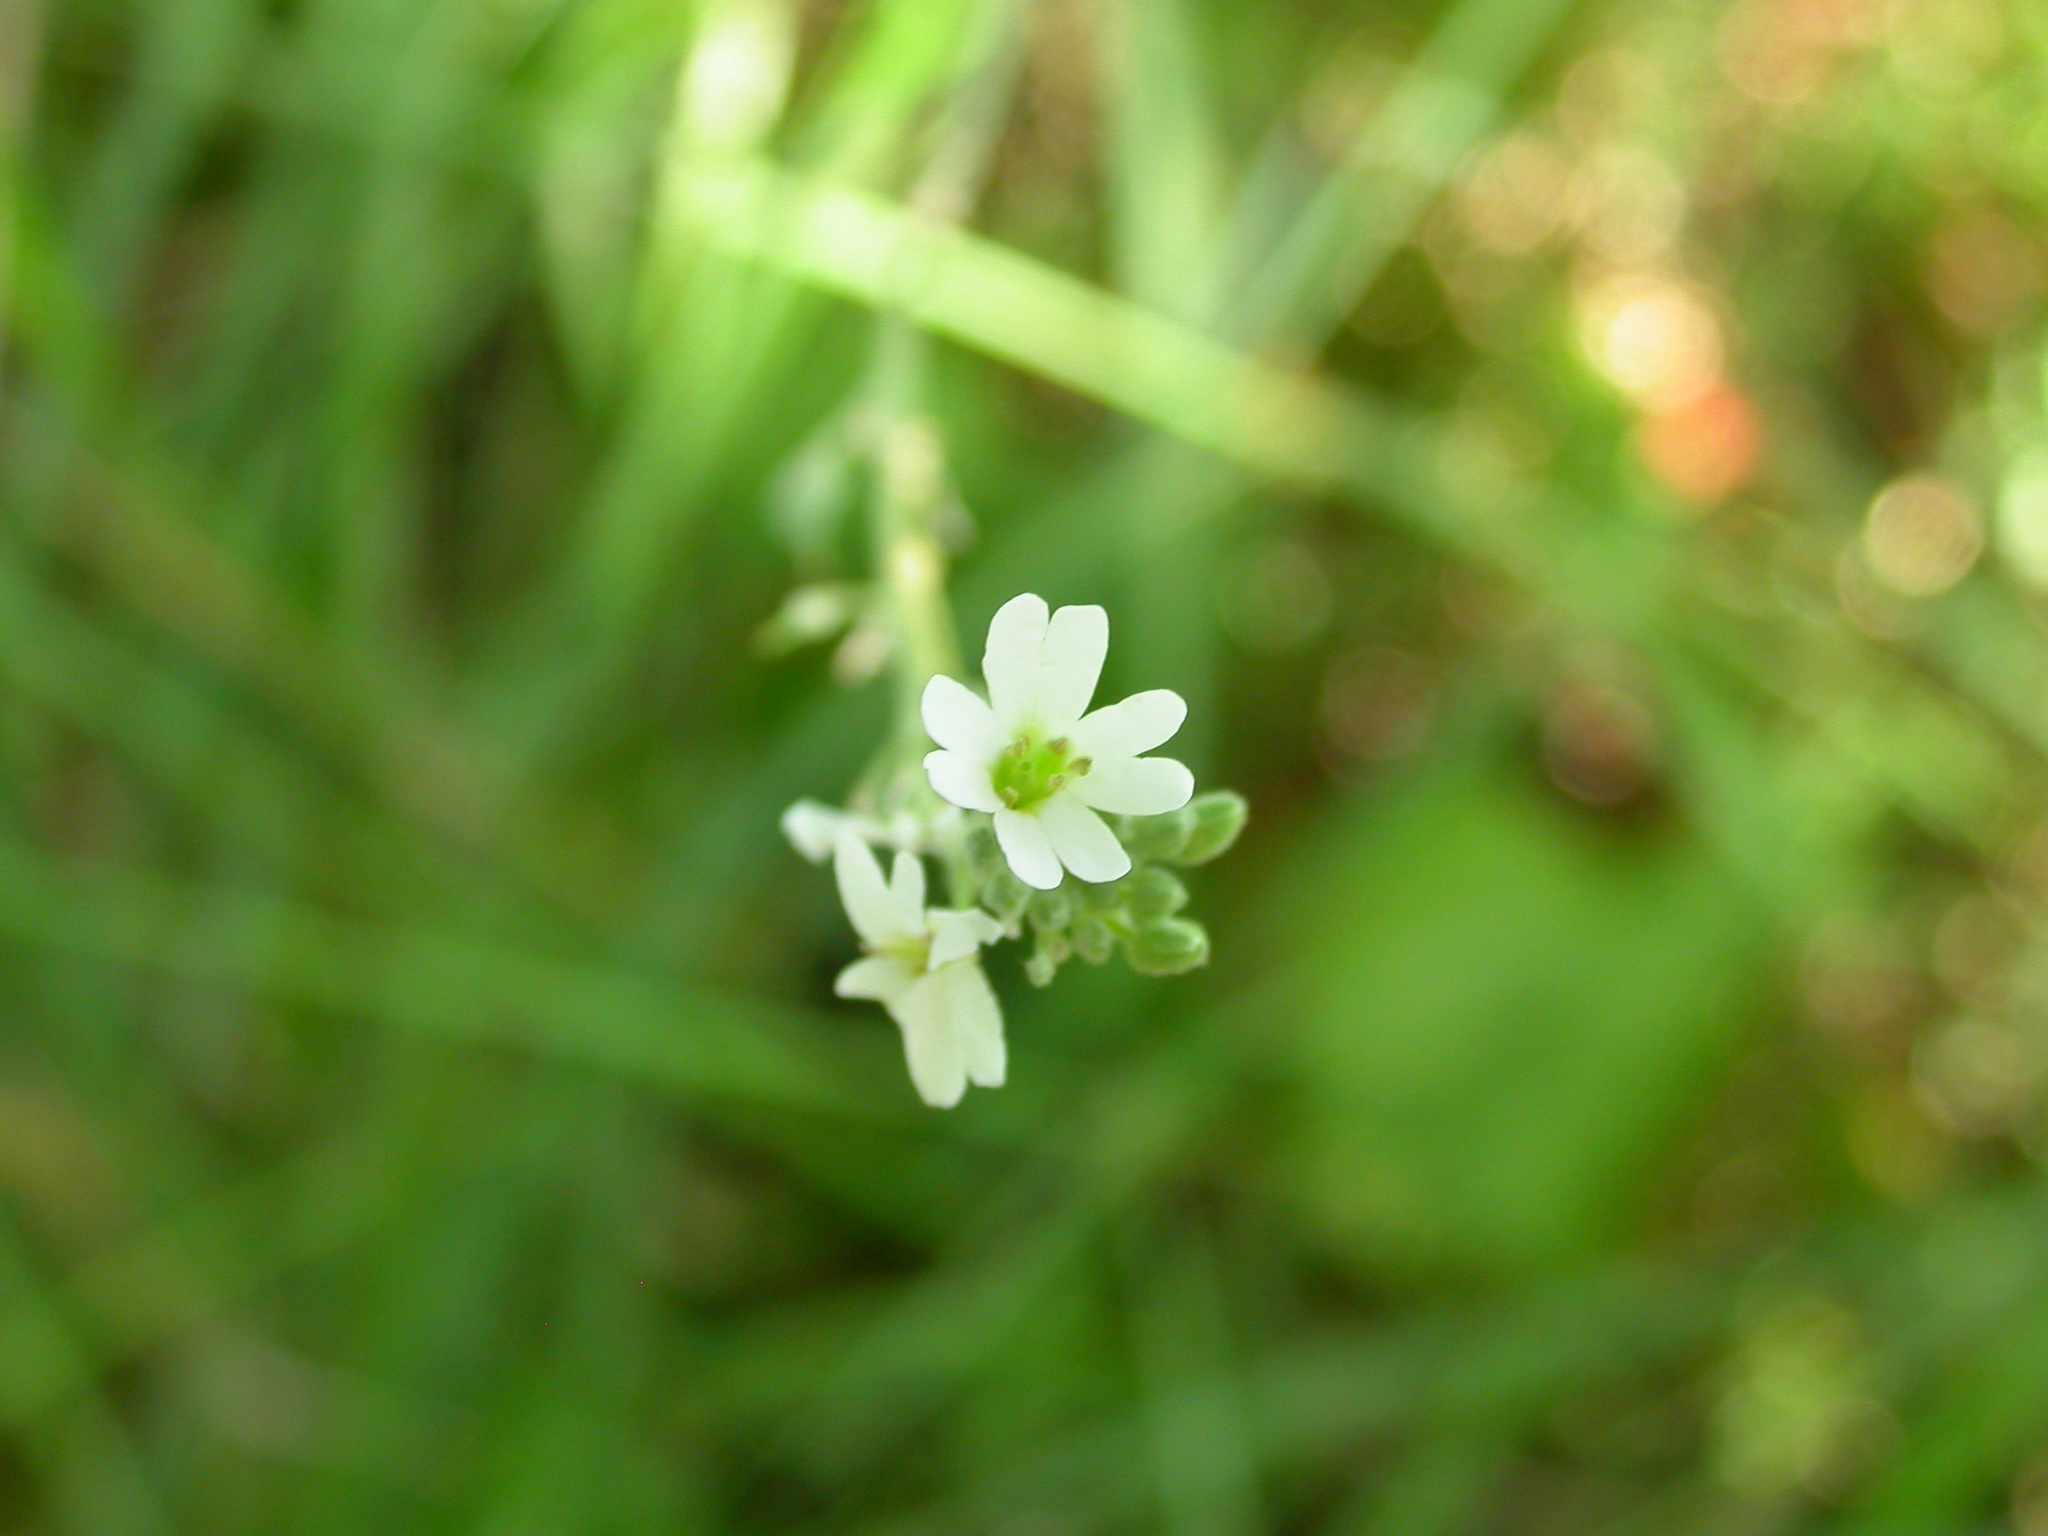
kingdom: Plantae
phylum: Tracheophyta
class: Magnoliopsida
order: Brassicales
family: Brassicaceae
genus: Berteroa
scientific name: Berteroa incana
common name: Hoary alison
